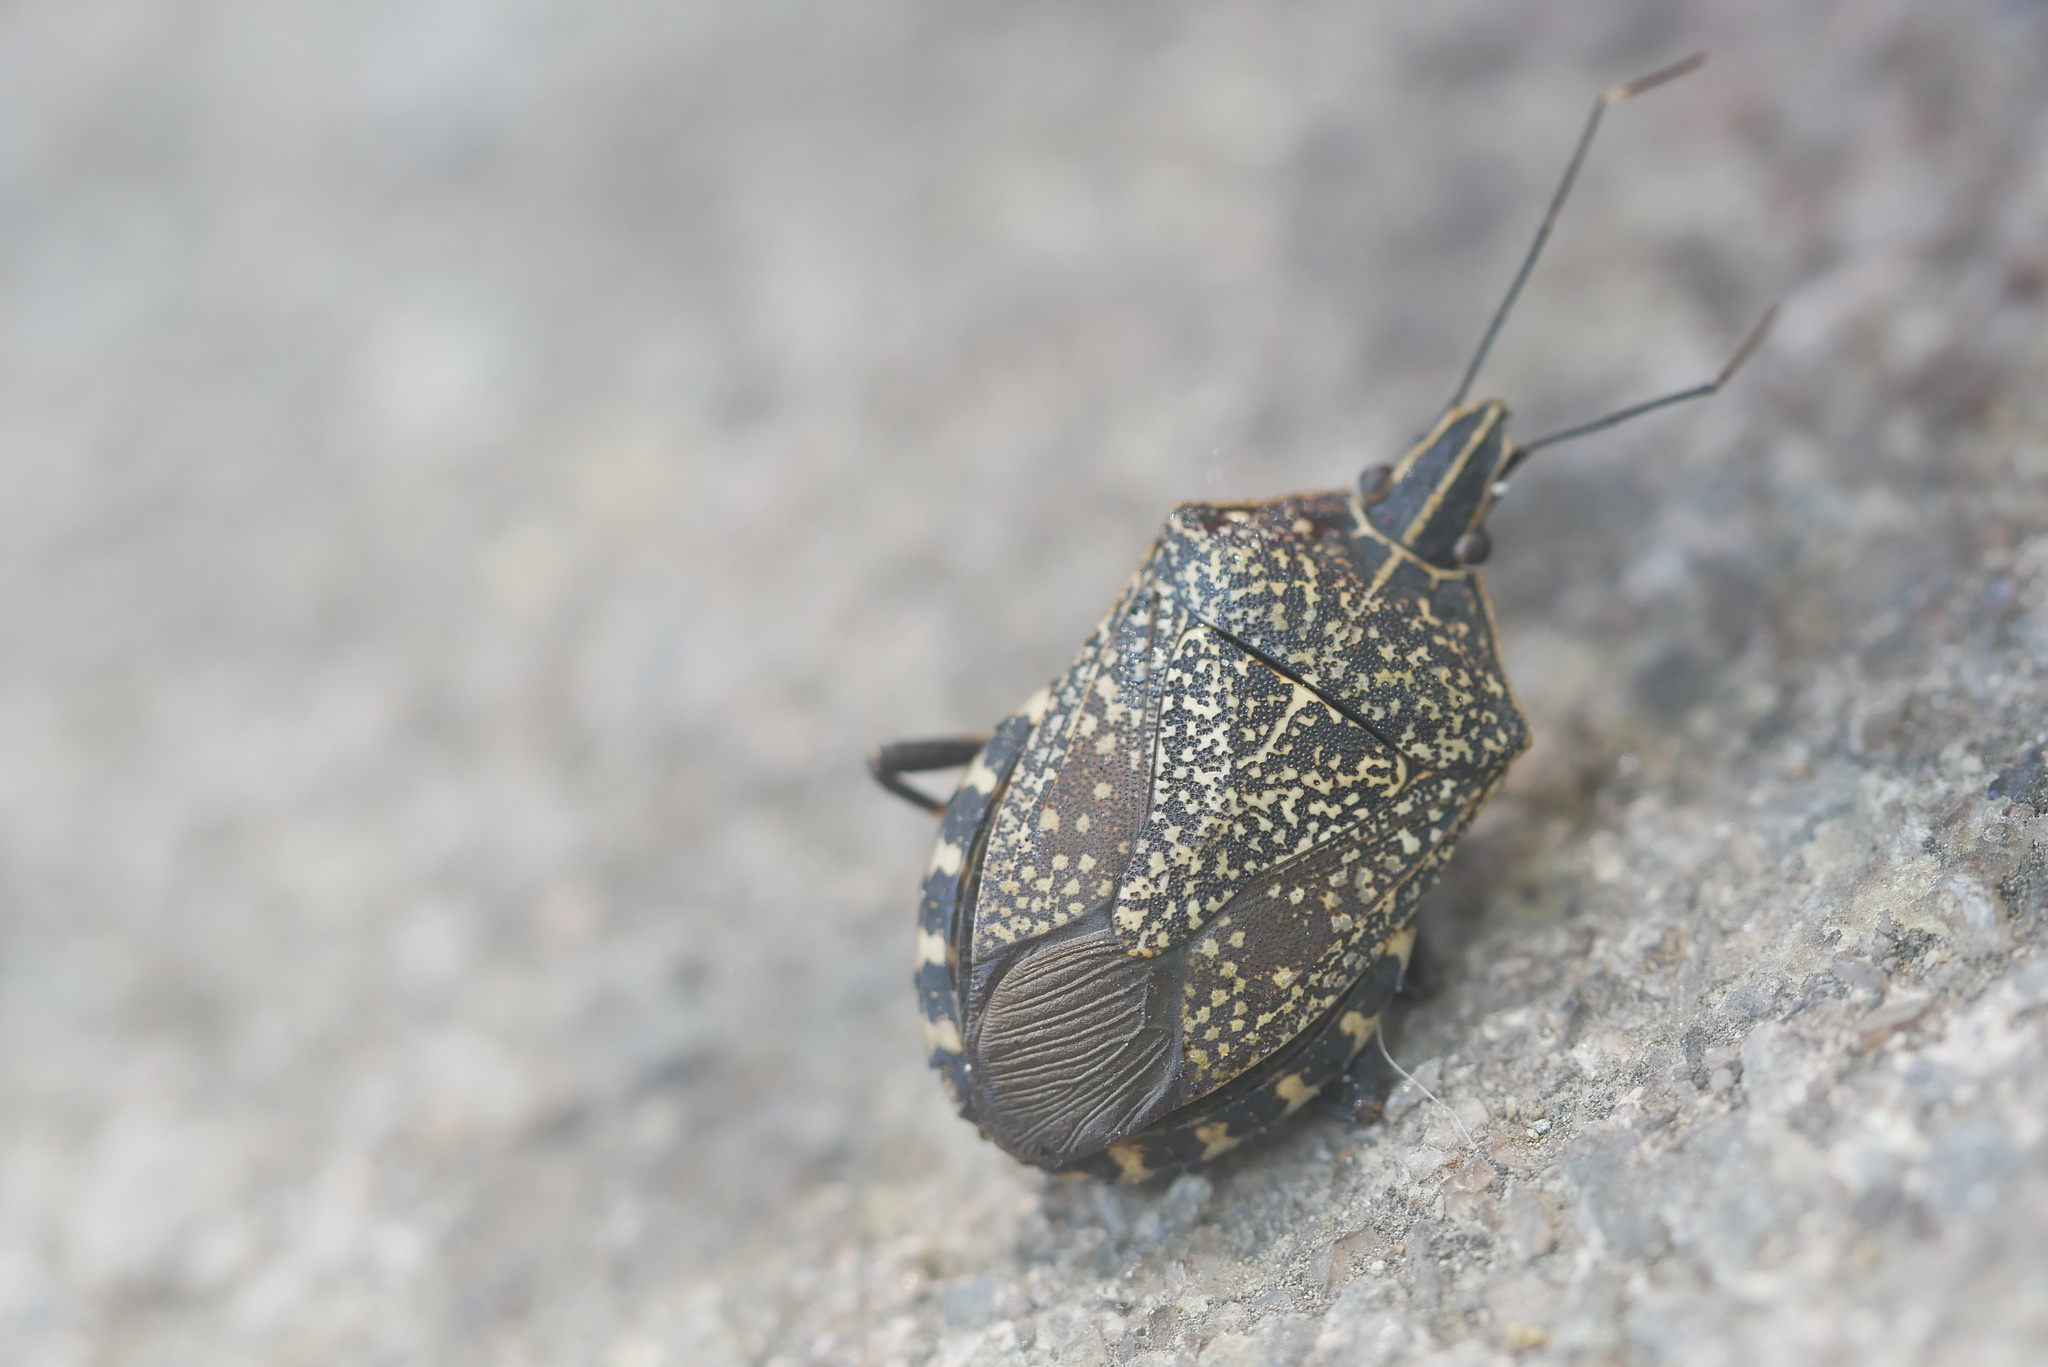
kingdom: Animalia
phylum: Arthropoda
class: Insecta
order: Hemiptera
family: Pentatomidae
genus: Erthesina
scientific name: Erthesina fullo
